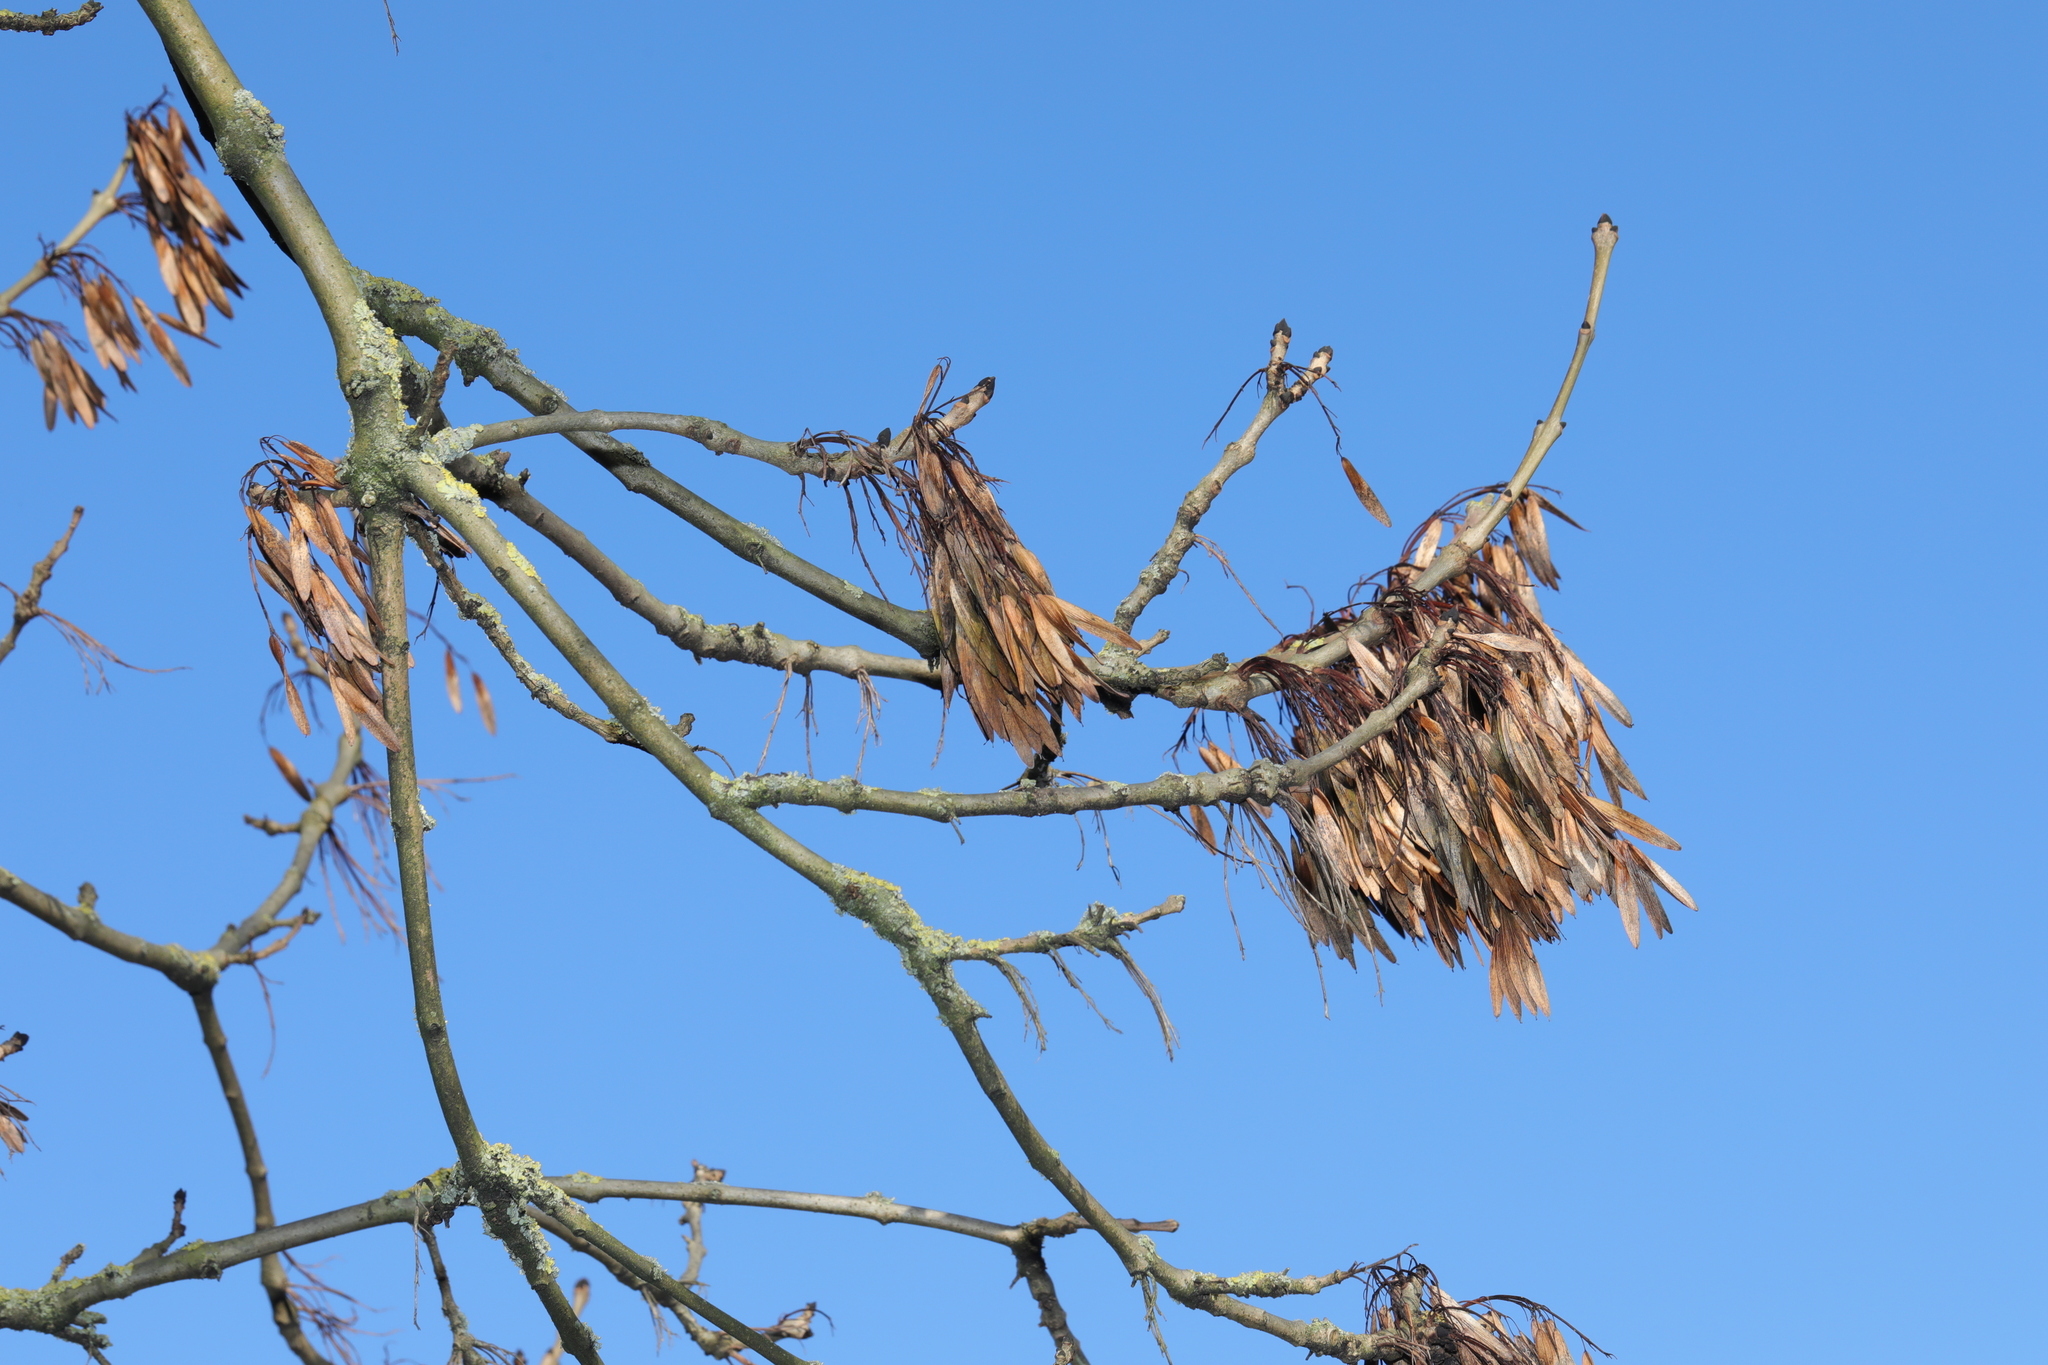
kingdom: Plantae
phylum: Tracheophyta
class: Magnoliopsida
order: Lamiales
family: Oleaceae
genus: Fraxinus
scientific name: Fraxinus excelsior
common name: European ash
